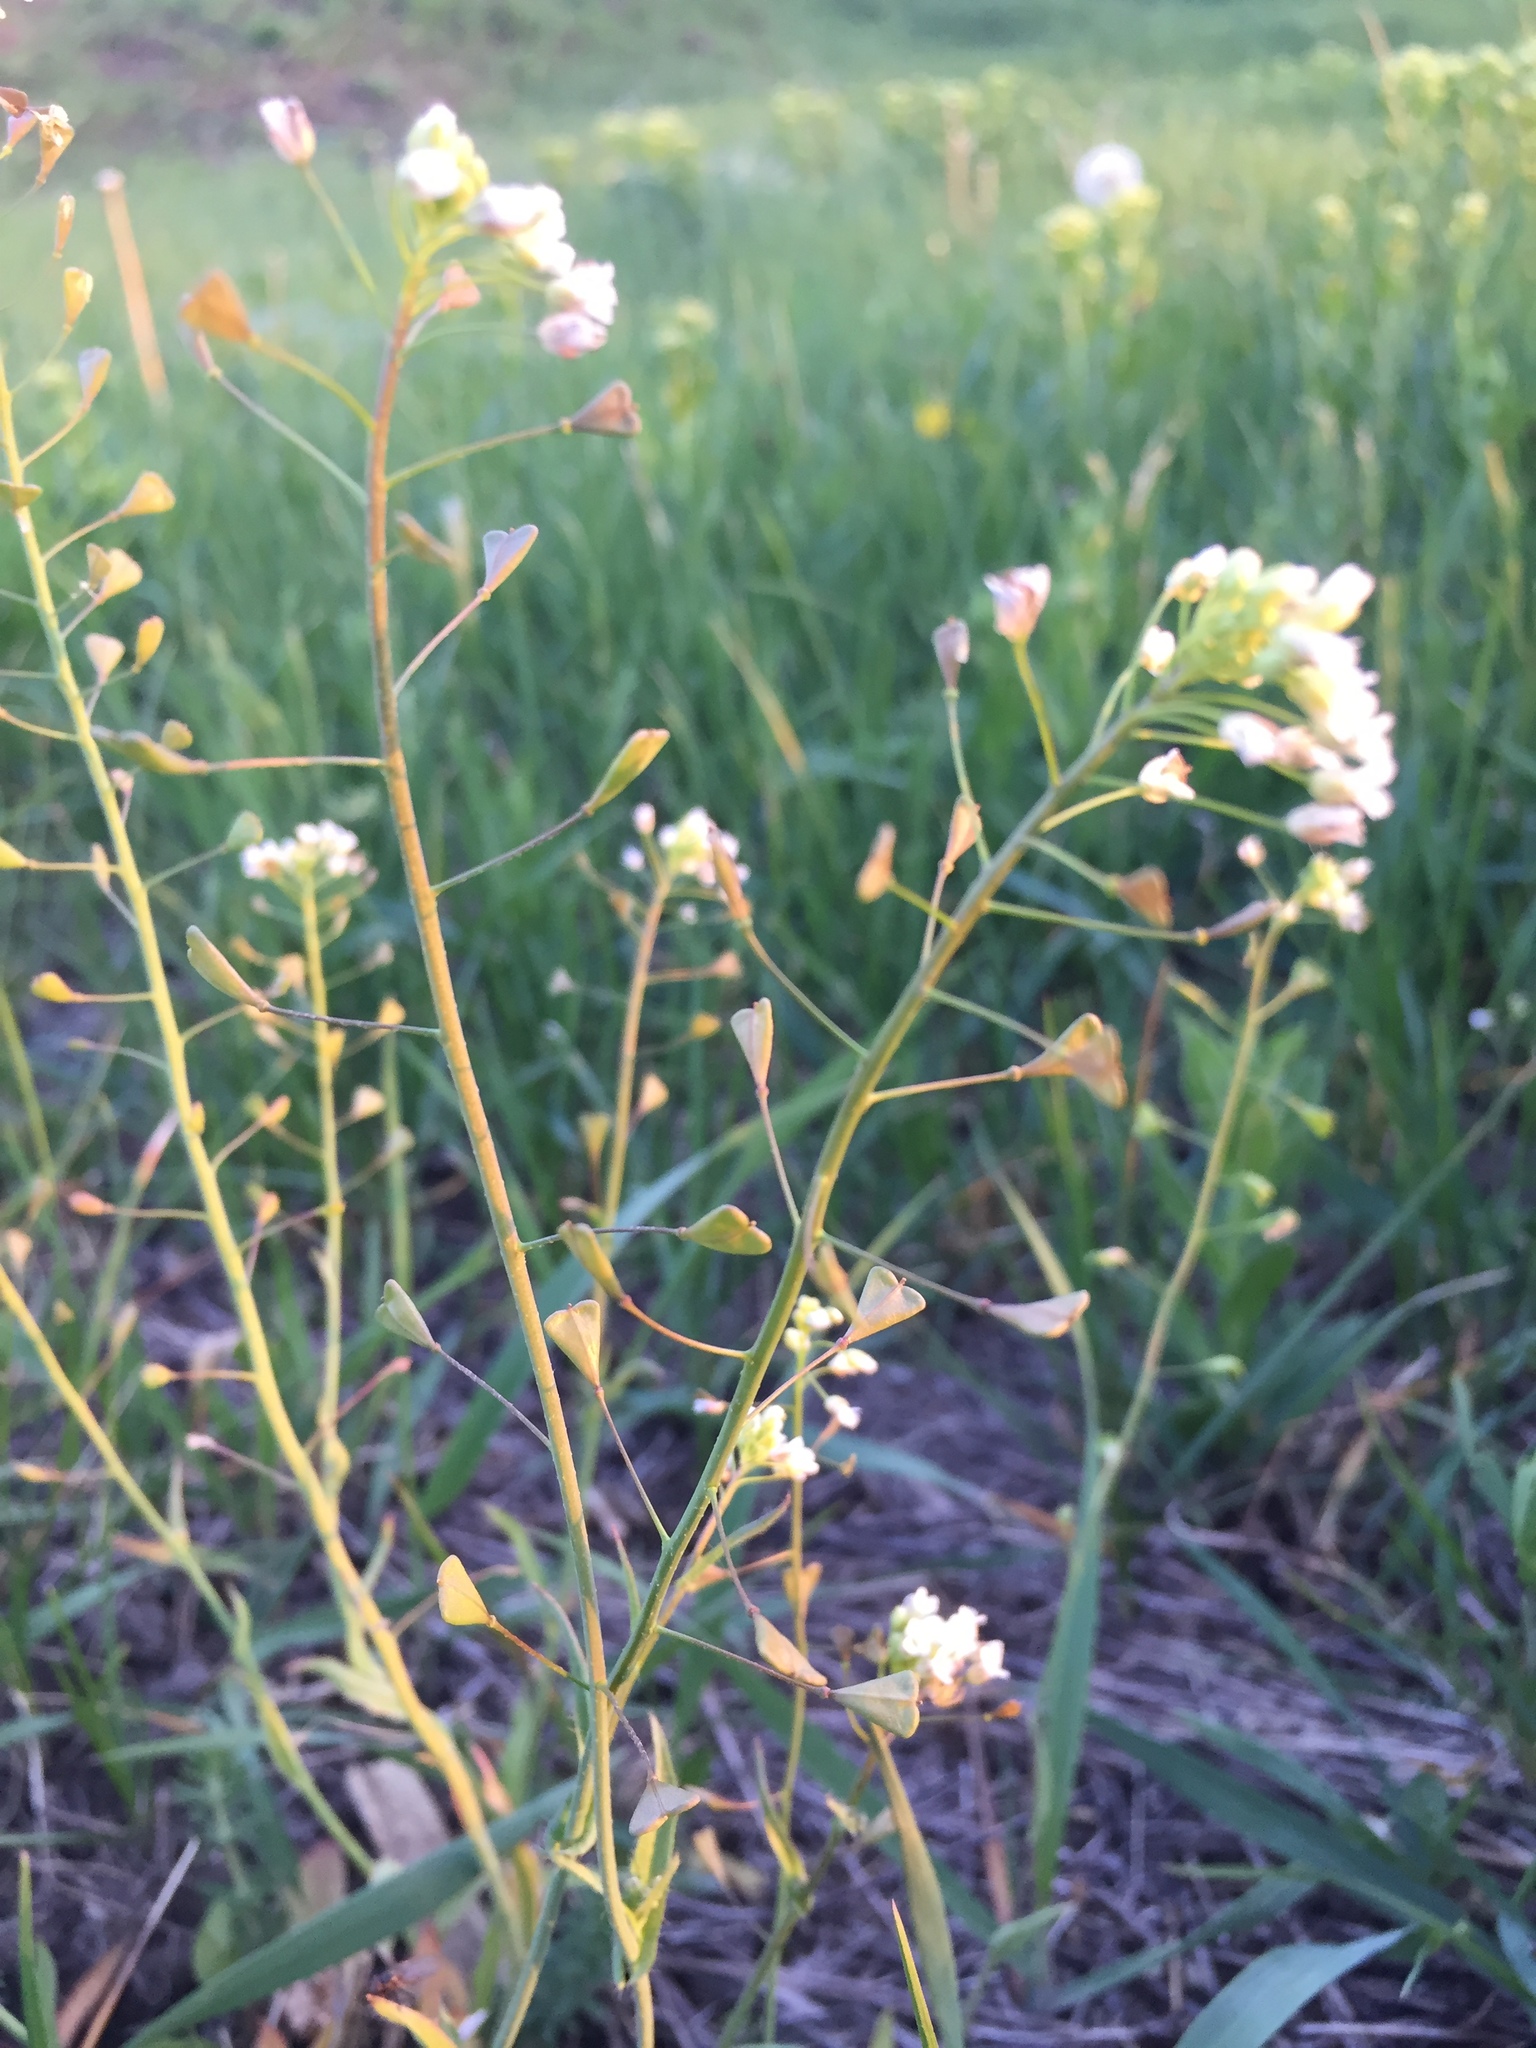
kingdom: Plantae
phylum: Tracheophyta
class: Magnoliopsida
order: Brassicales
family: Brassicaceae
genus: Capsella
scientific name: Capsella bursa-pastoris
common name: Shepherd's purse
